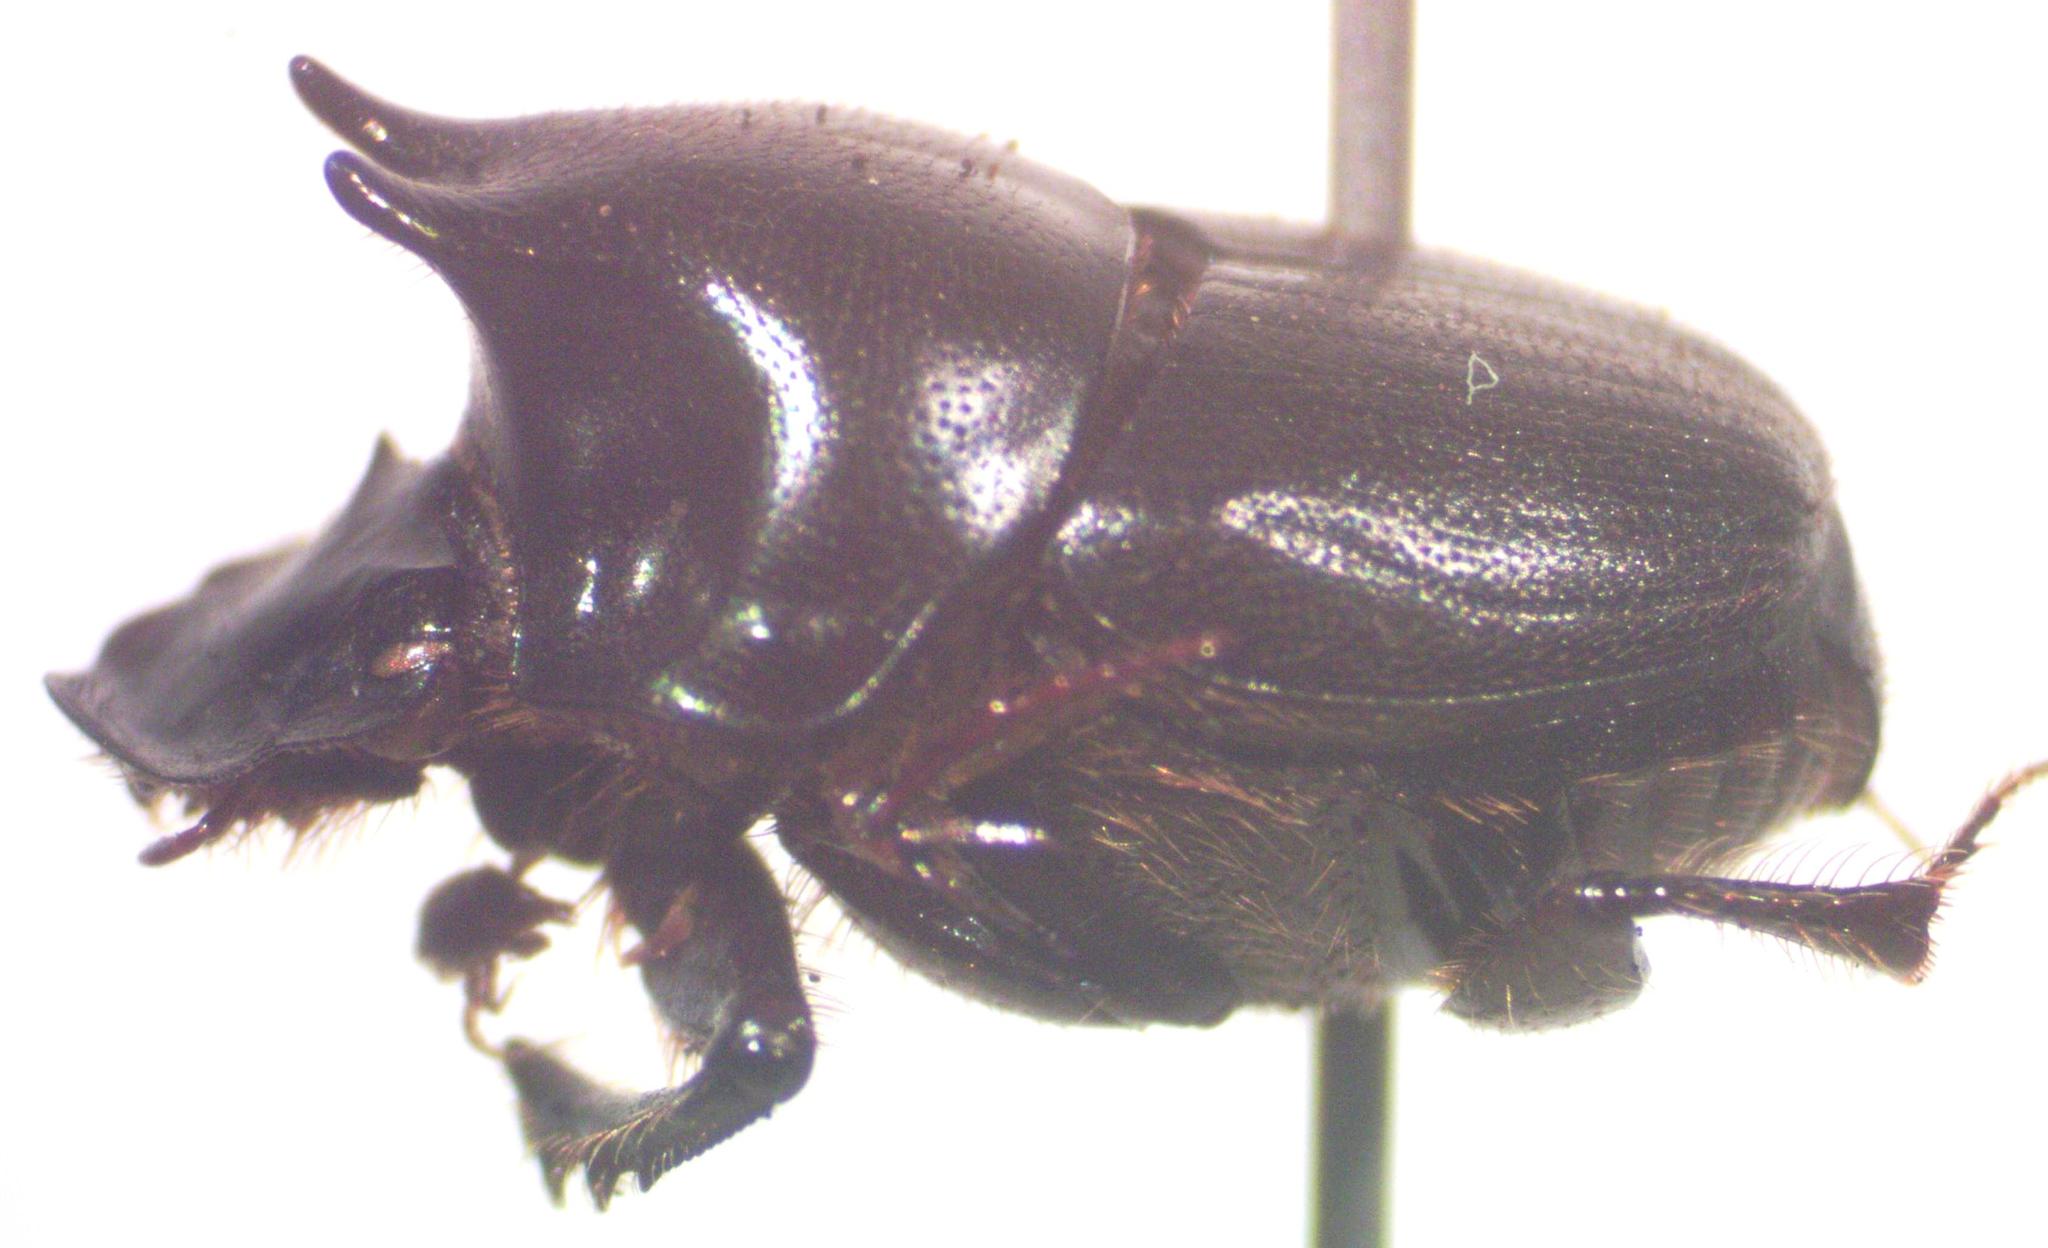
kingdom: Animalia
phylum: Arthropoda
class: Insecta
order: Coleoptera
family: Scarabaeidae
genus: Onthophagus
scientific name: Onthophagus championi
